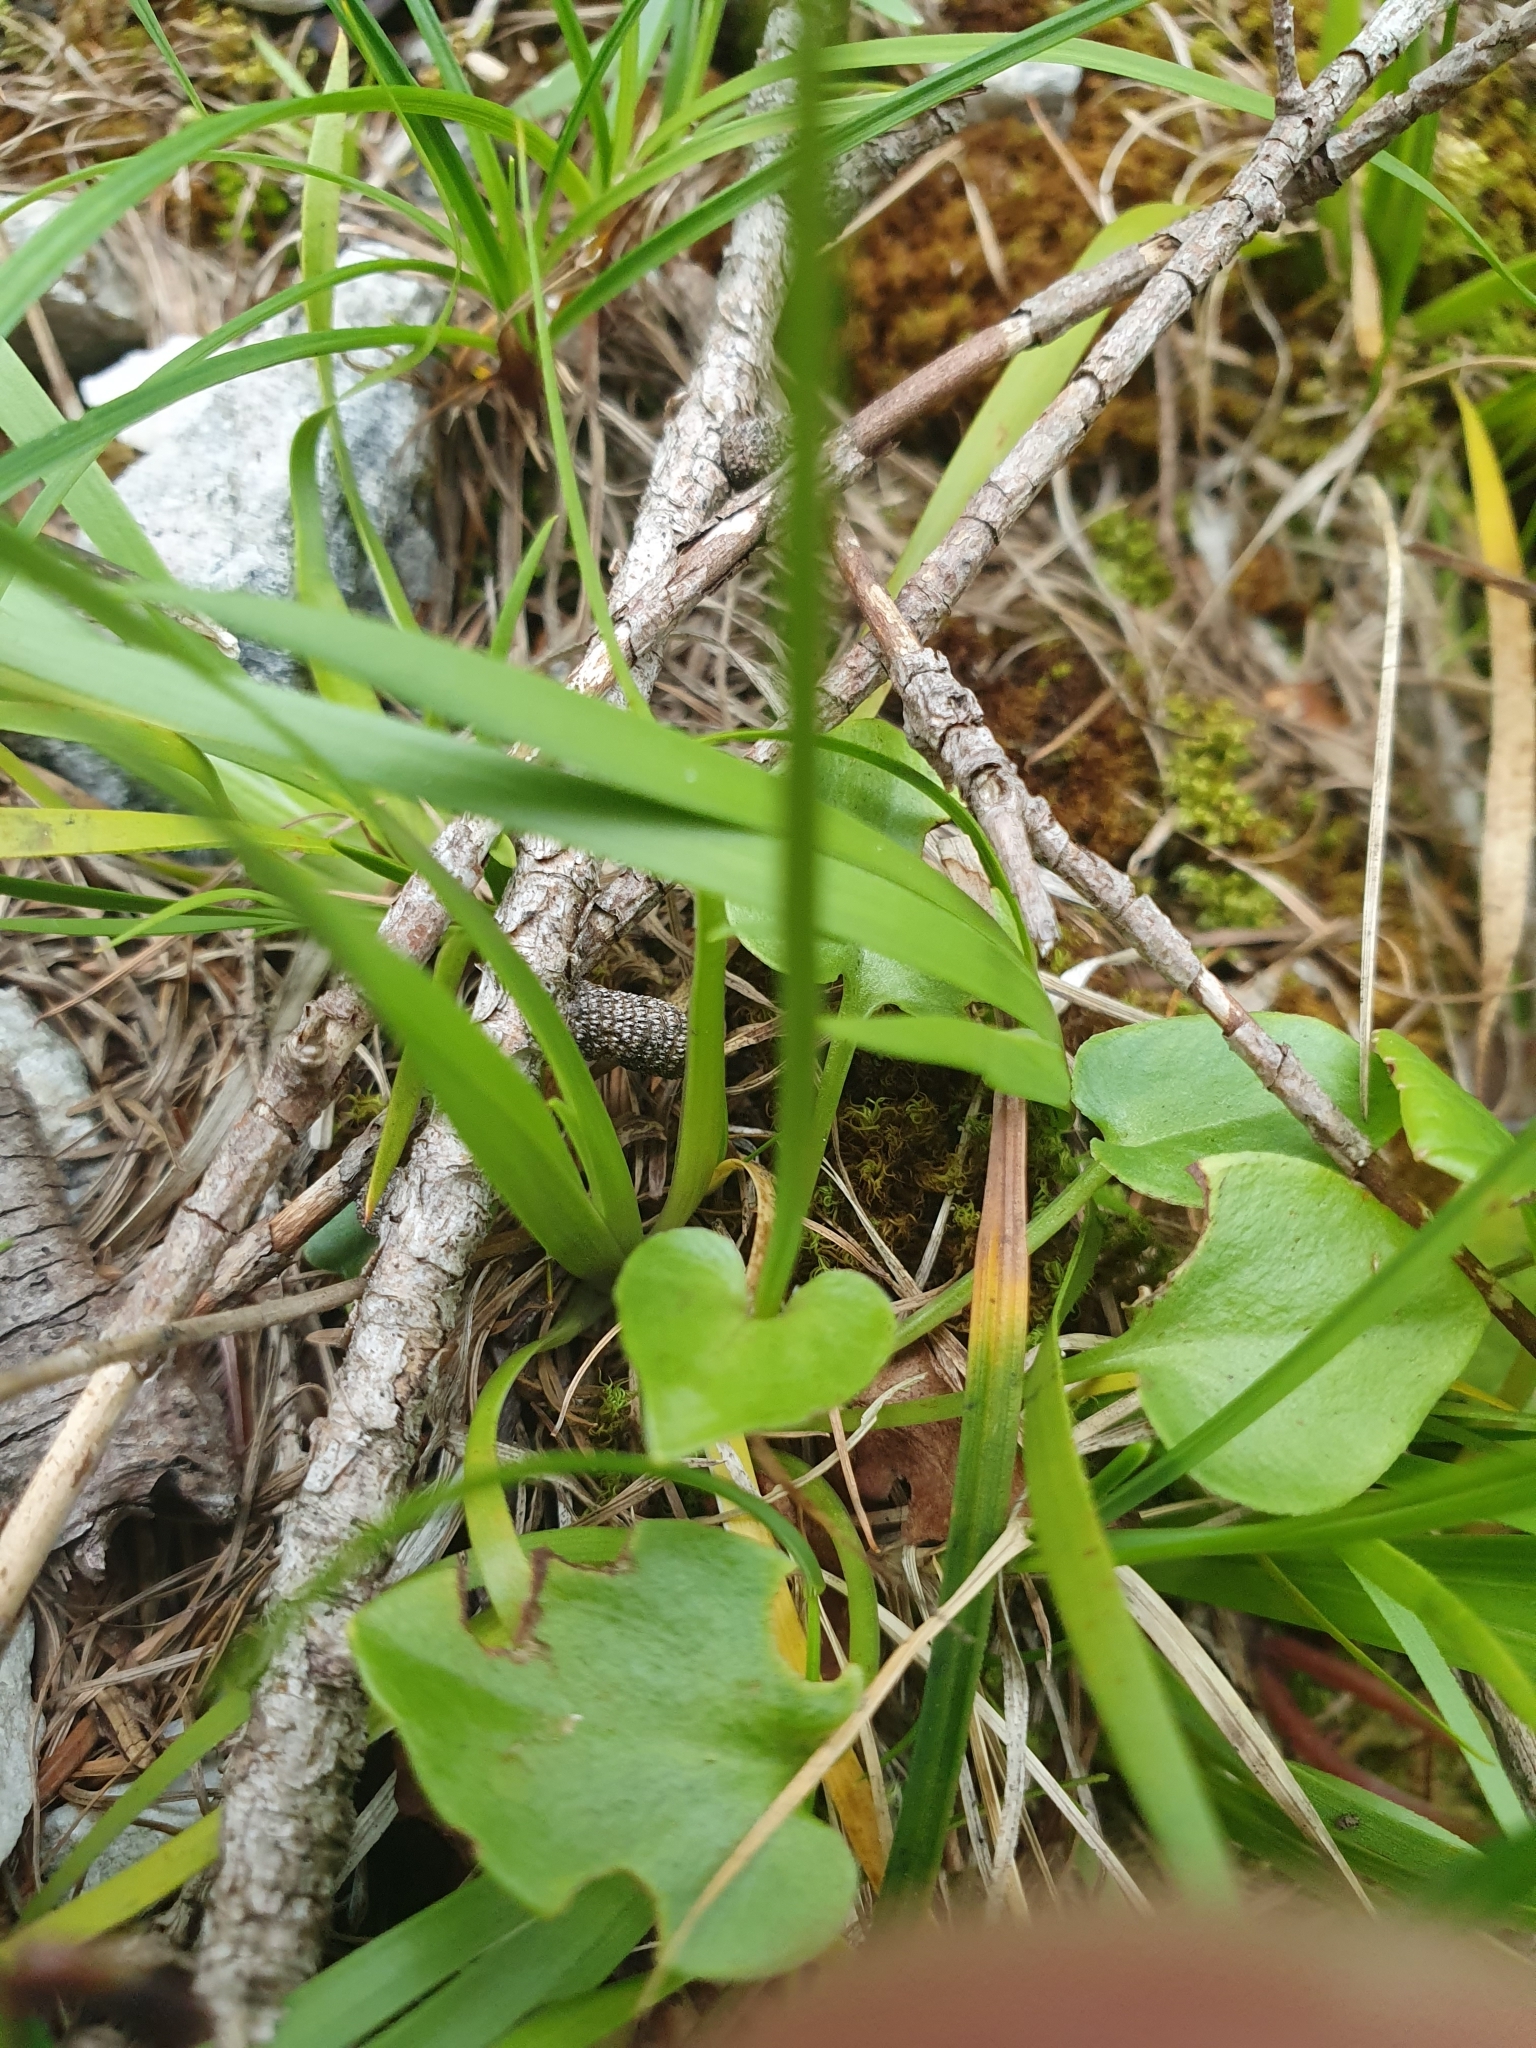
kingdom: Plantae
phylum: Tracheophyta
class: Magnoliopsida
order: Celastrales
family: Parnassiaceae
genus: Parnassia
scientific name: Parnassia palustris
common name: Grass-of-parnassus
